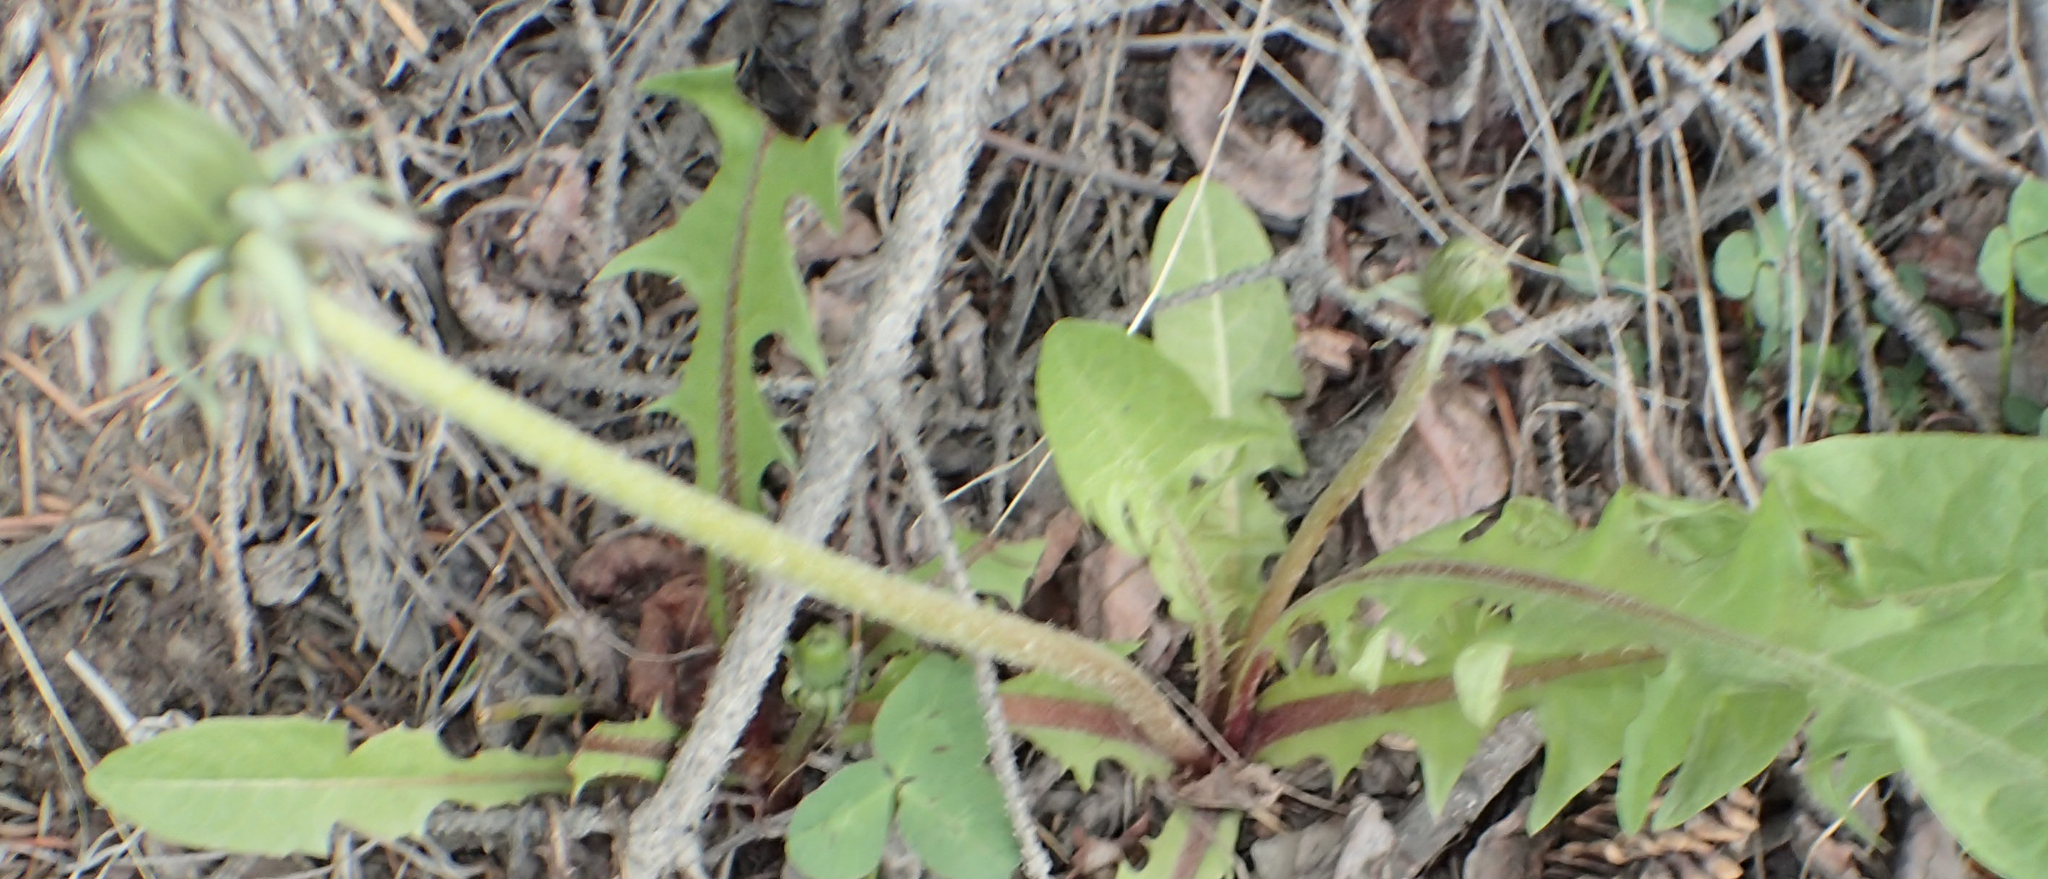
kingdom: Plantae
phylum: Tracheophyta
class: Magnoliopsida
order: Asterales
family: Asteraceae
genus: Taraxacum
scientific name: Taraxacum officinale
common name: Common dandelion
